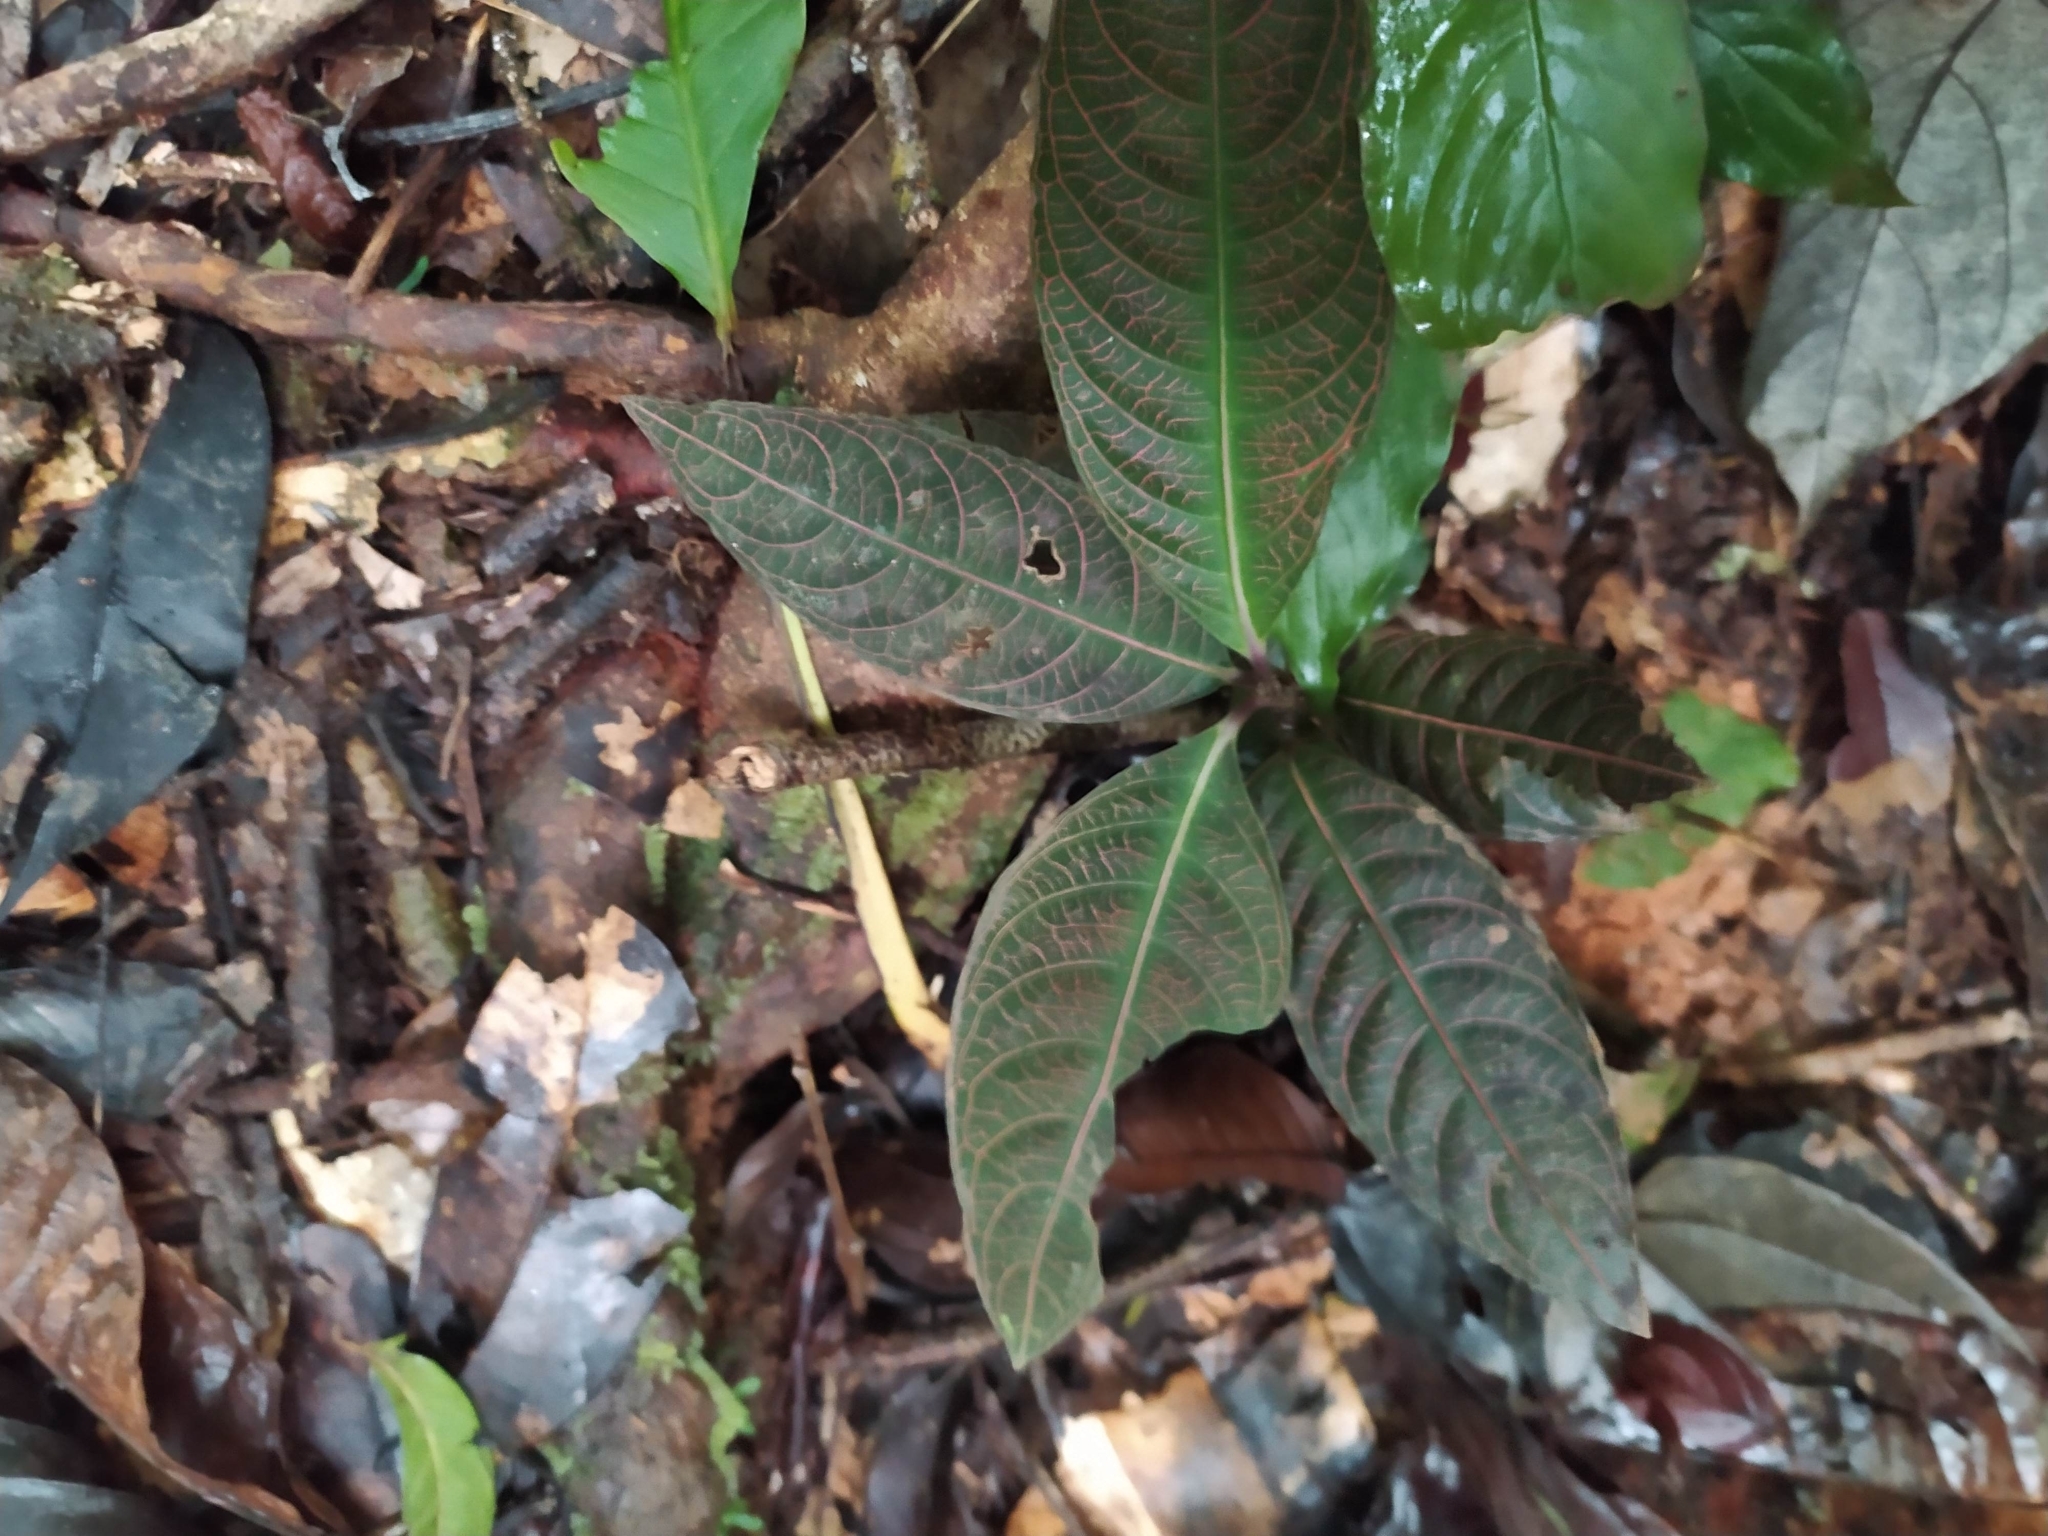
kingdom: Plantae
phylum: Tracheophyta
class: Magnoliopsida
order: Gentianales
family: Rubiaceae
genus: Palicourea
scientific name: Palicourea microbotrys
